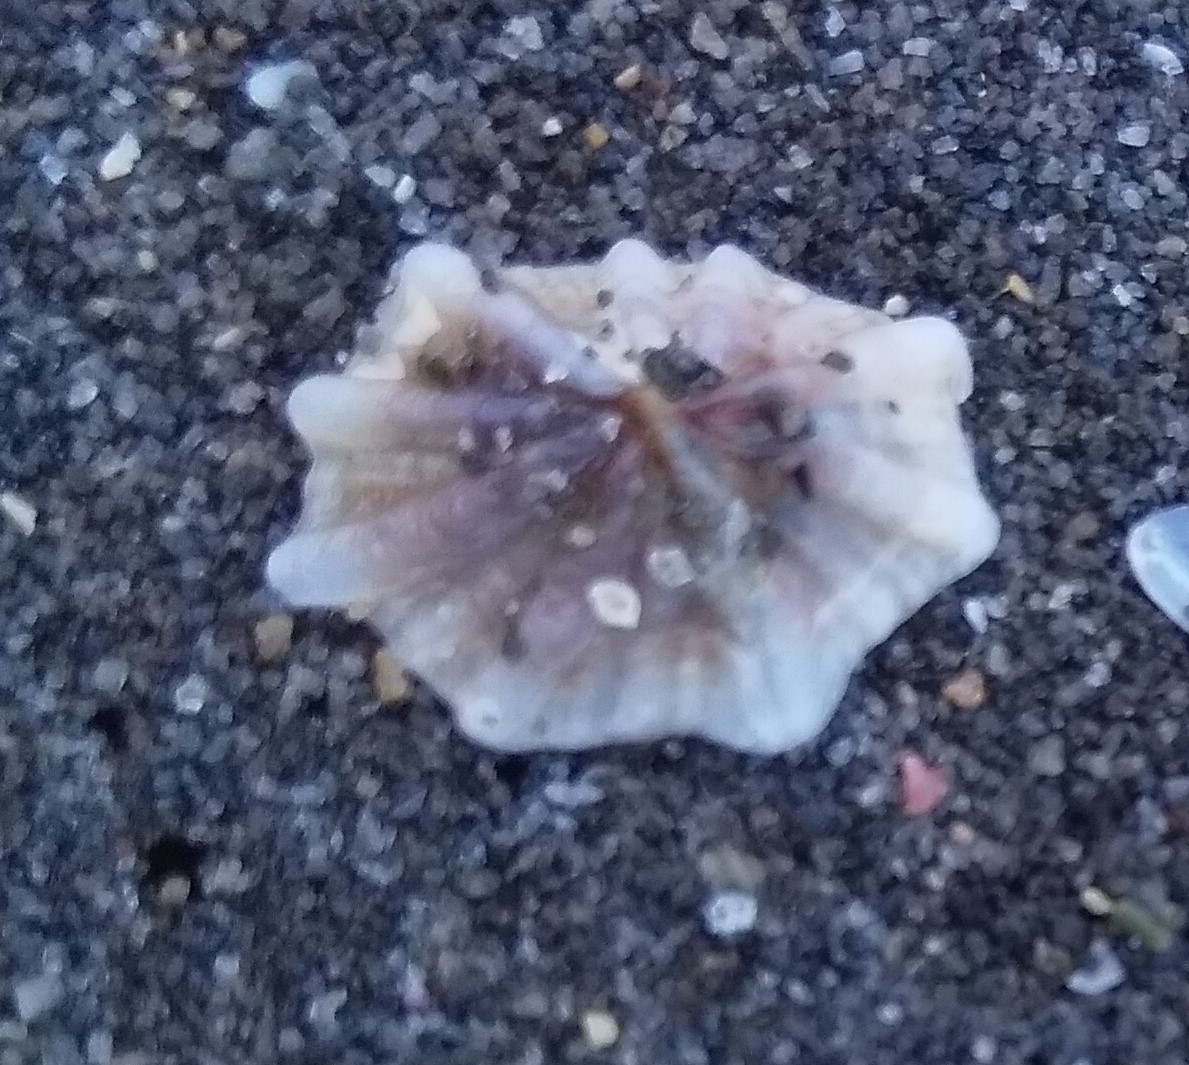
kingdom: Animalia
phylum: Mollusca
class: Gastropoda
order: Siphonariida
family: Siphonariidae
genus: Siphonaria
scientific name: Siphonaria australis
